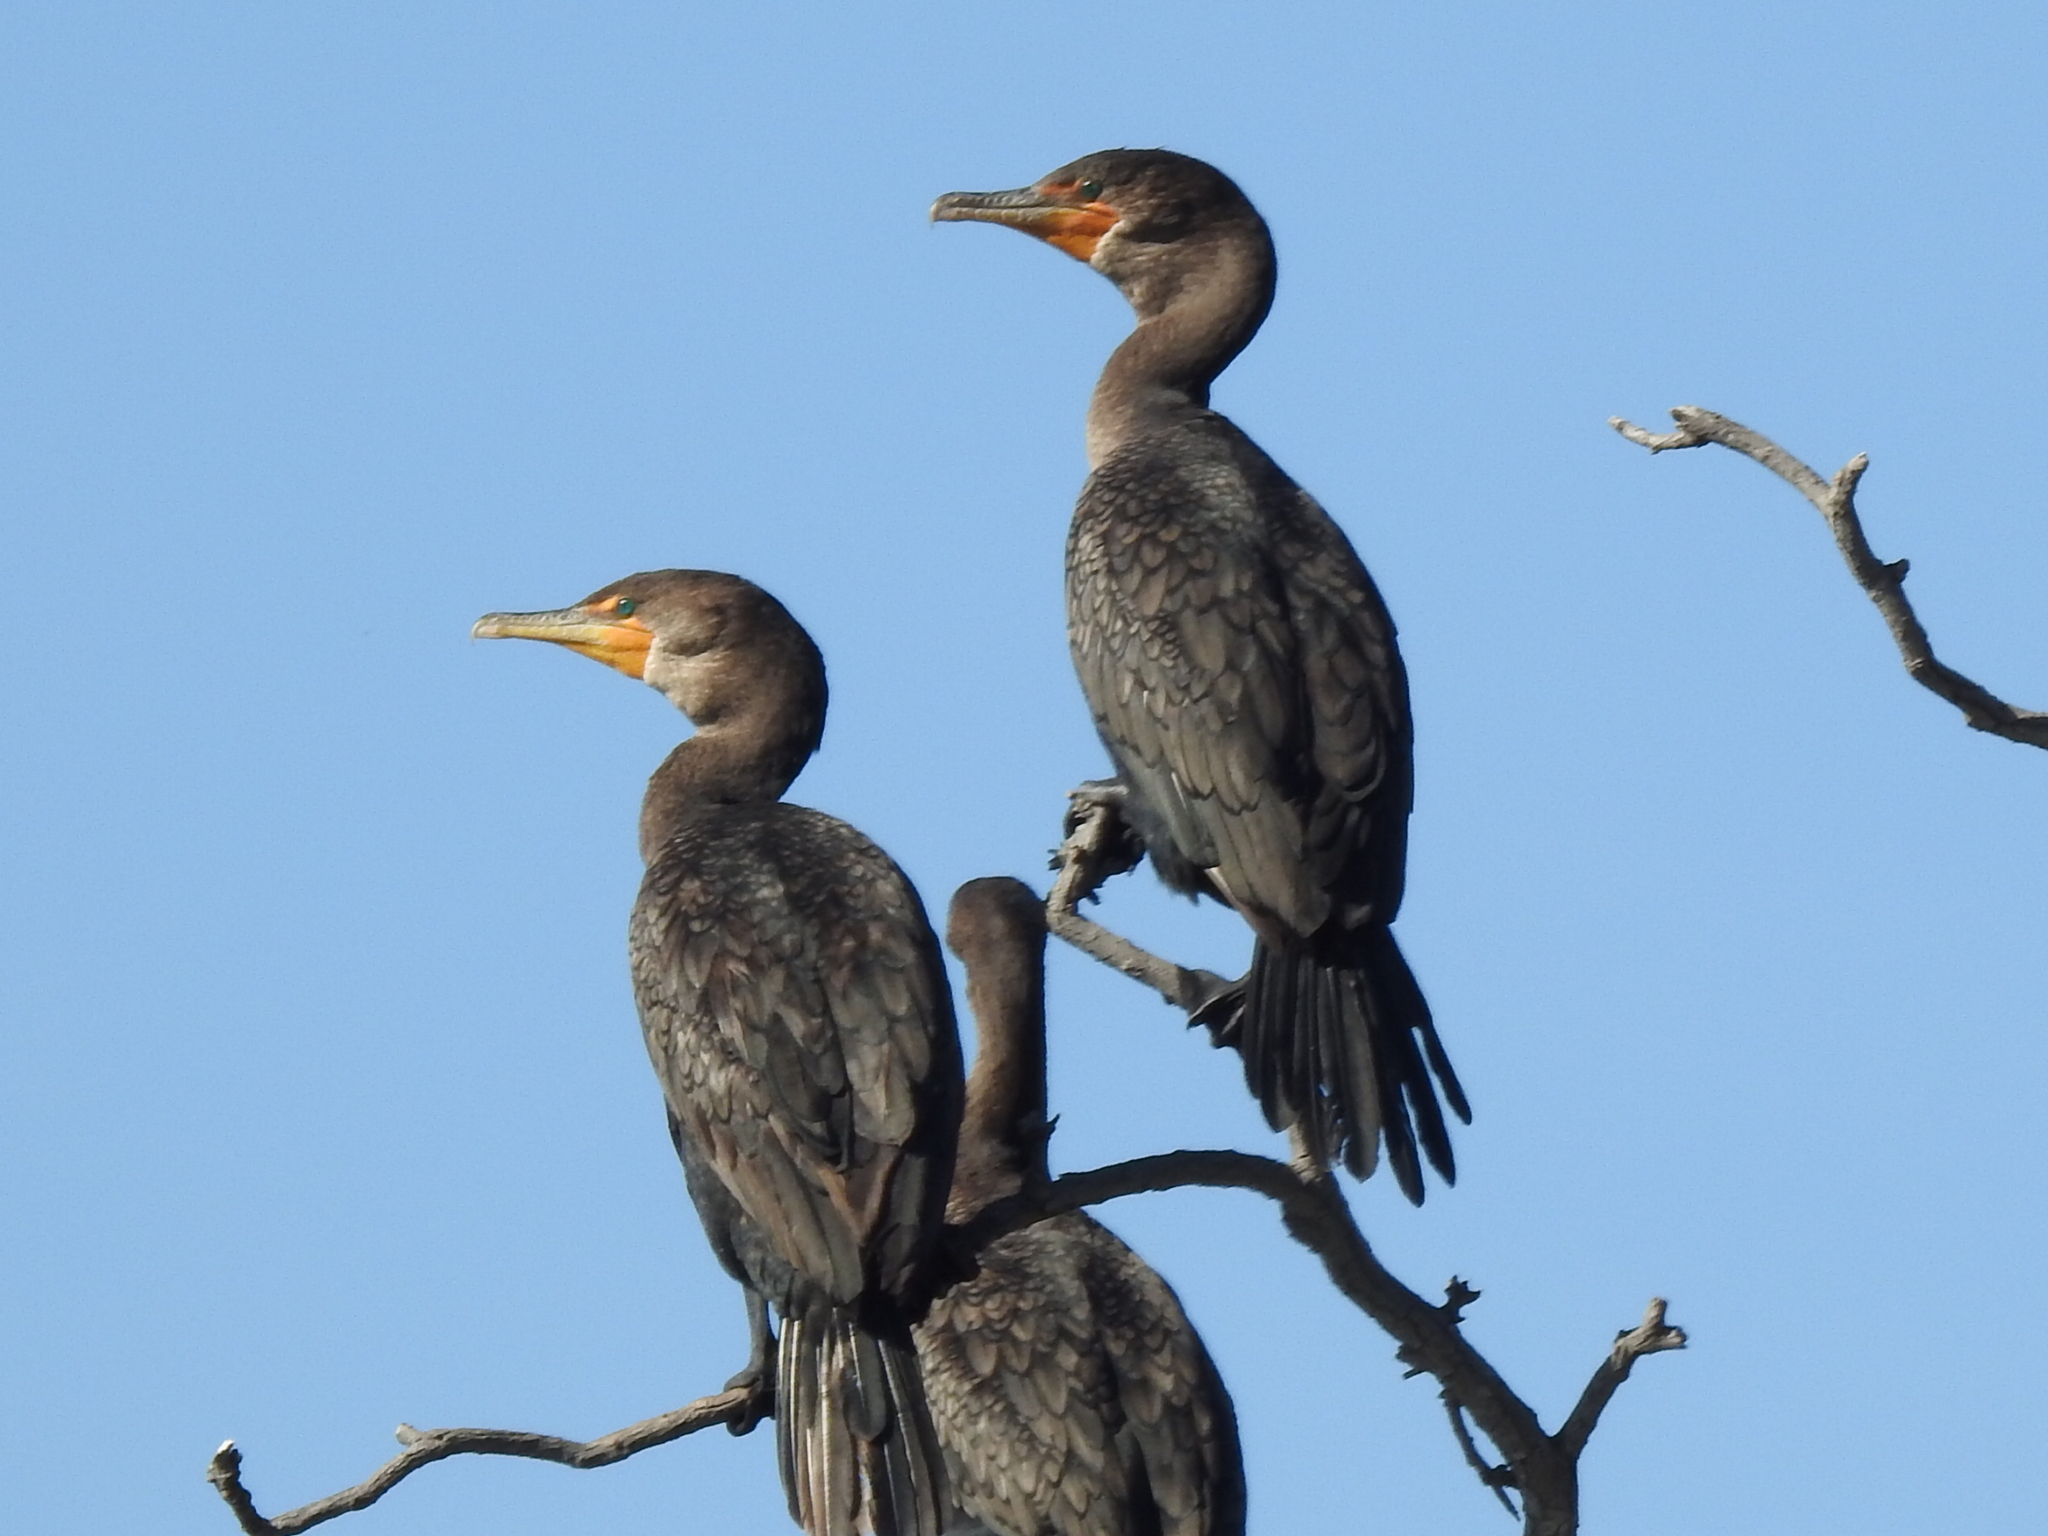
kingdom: Animalia
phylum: Chordata
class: Aves
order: Suliformes
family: Phalacrocoracidae
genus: Phalacrocorax
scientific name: Phalacrocorax auritus
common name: Double-crested cormorant
